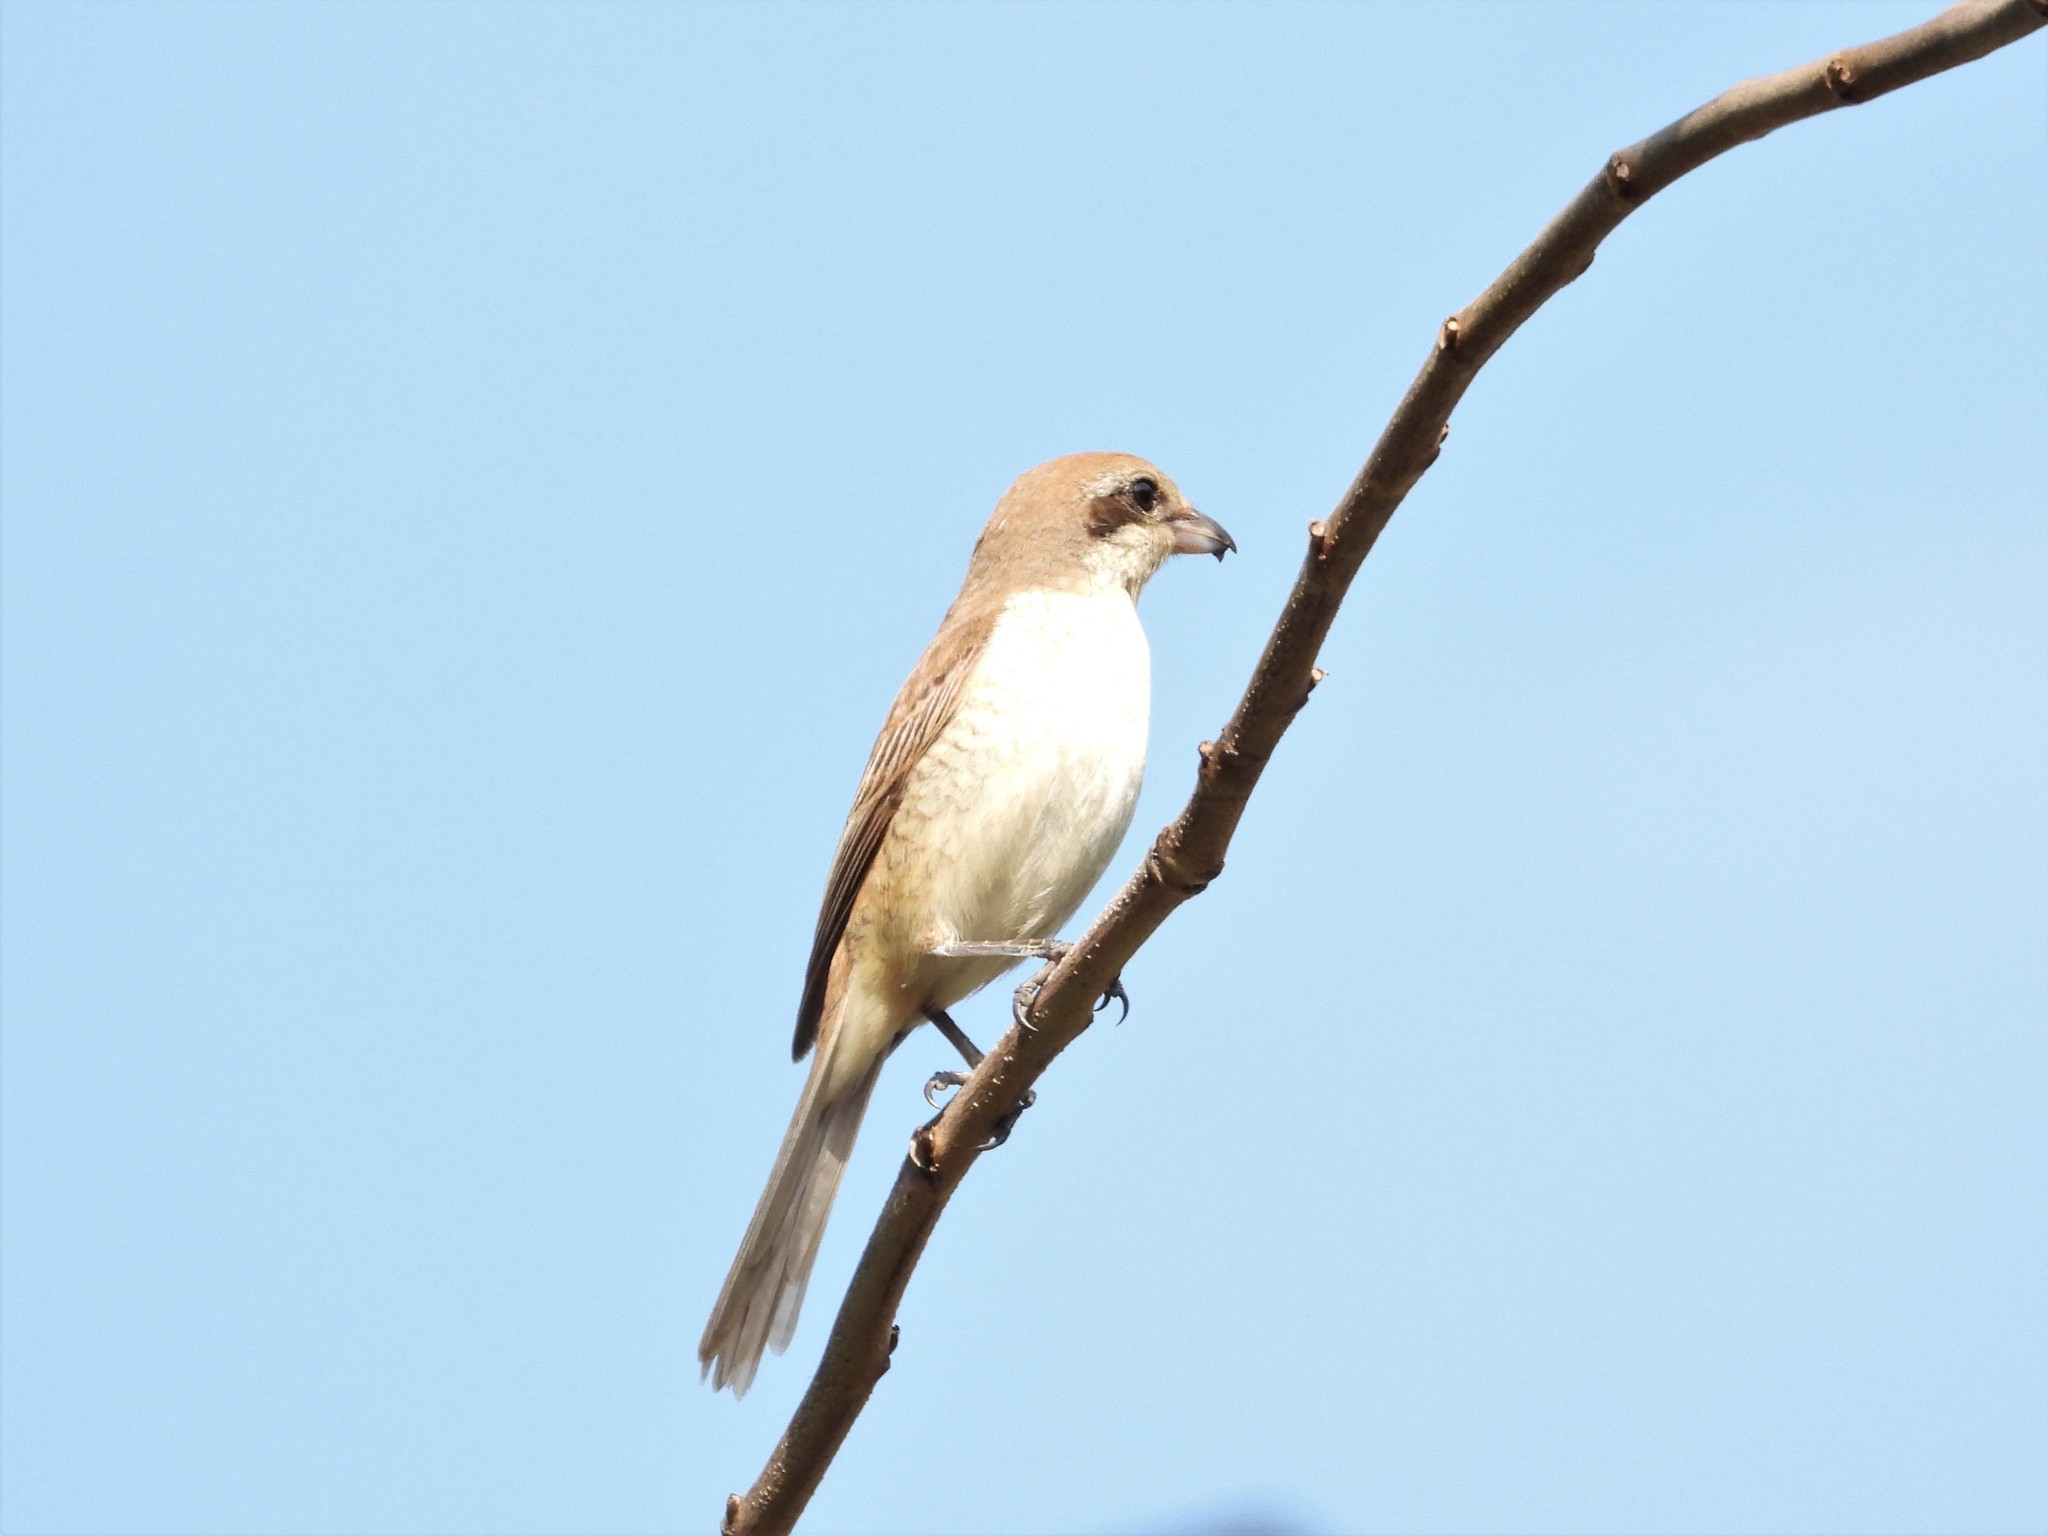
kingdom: Animalia
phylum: Chordata
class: Aves
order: Passeriformes
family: Laniidae
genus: Lanius
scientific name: Lanius cristatus
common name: Brown shrike
